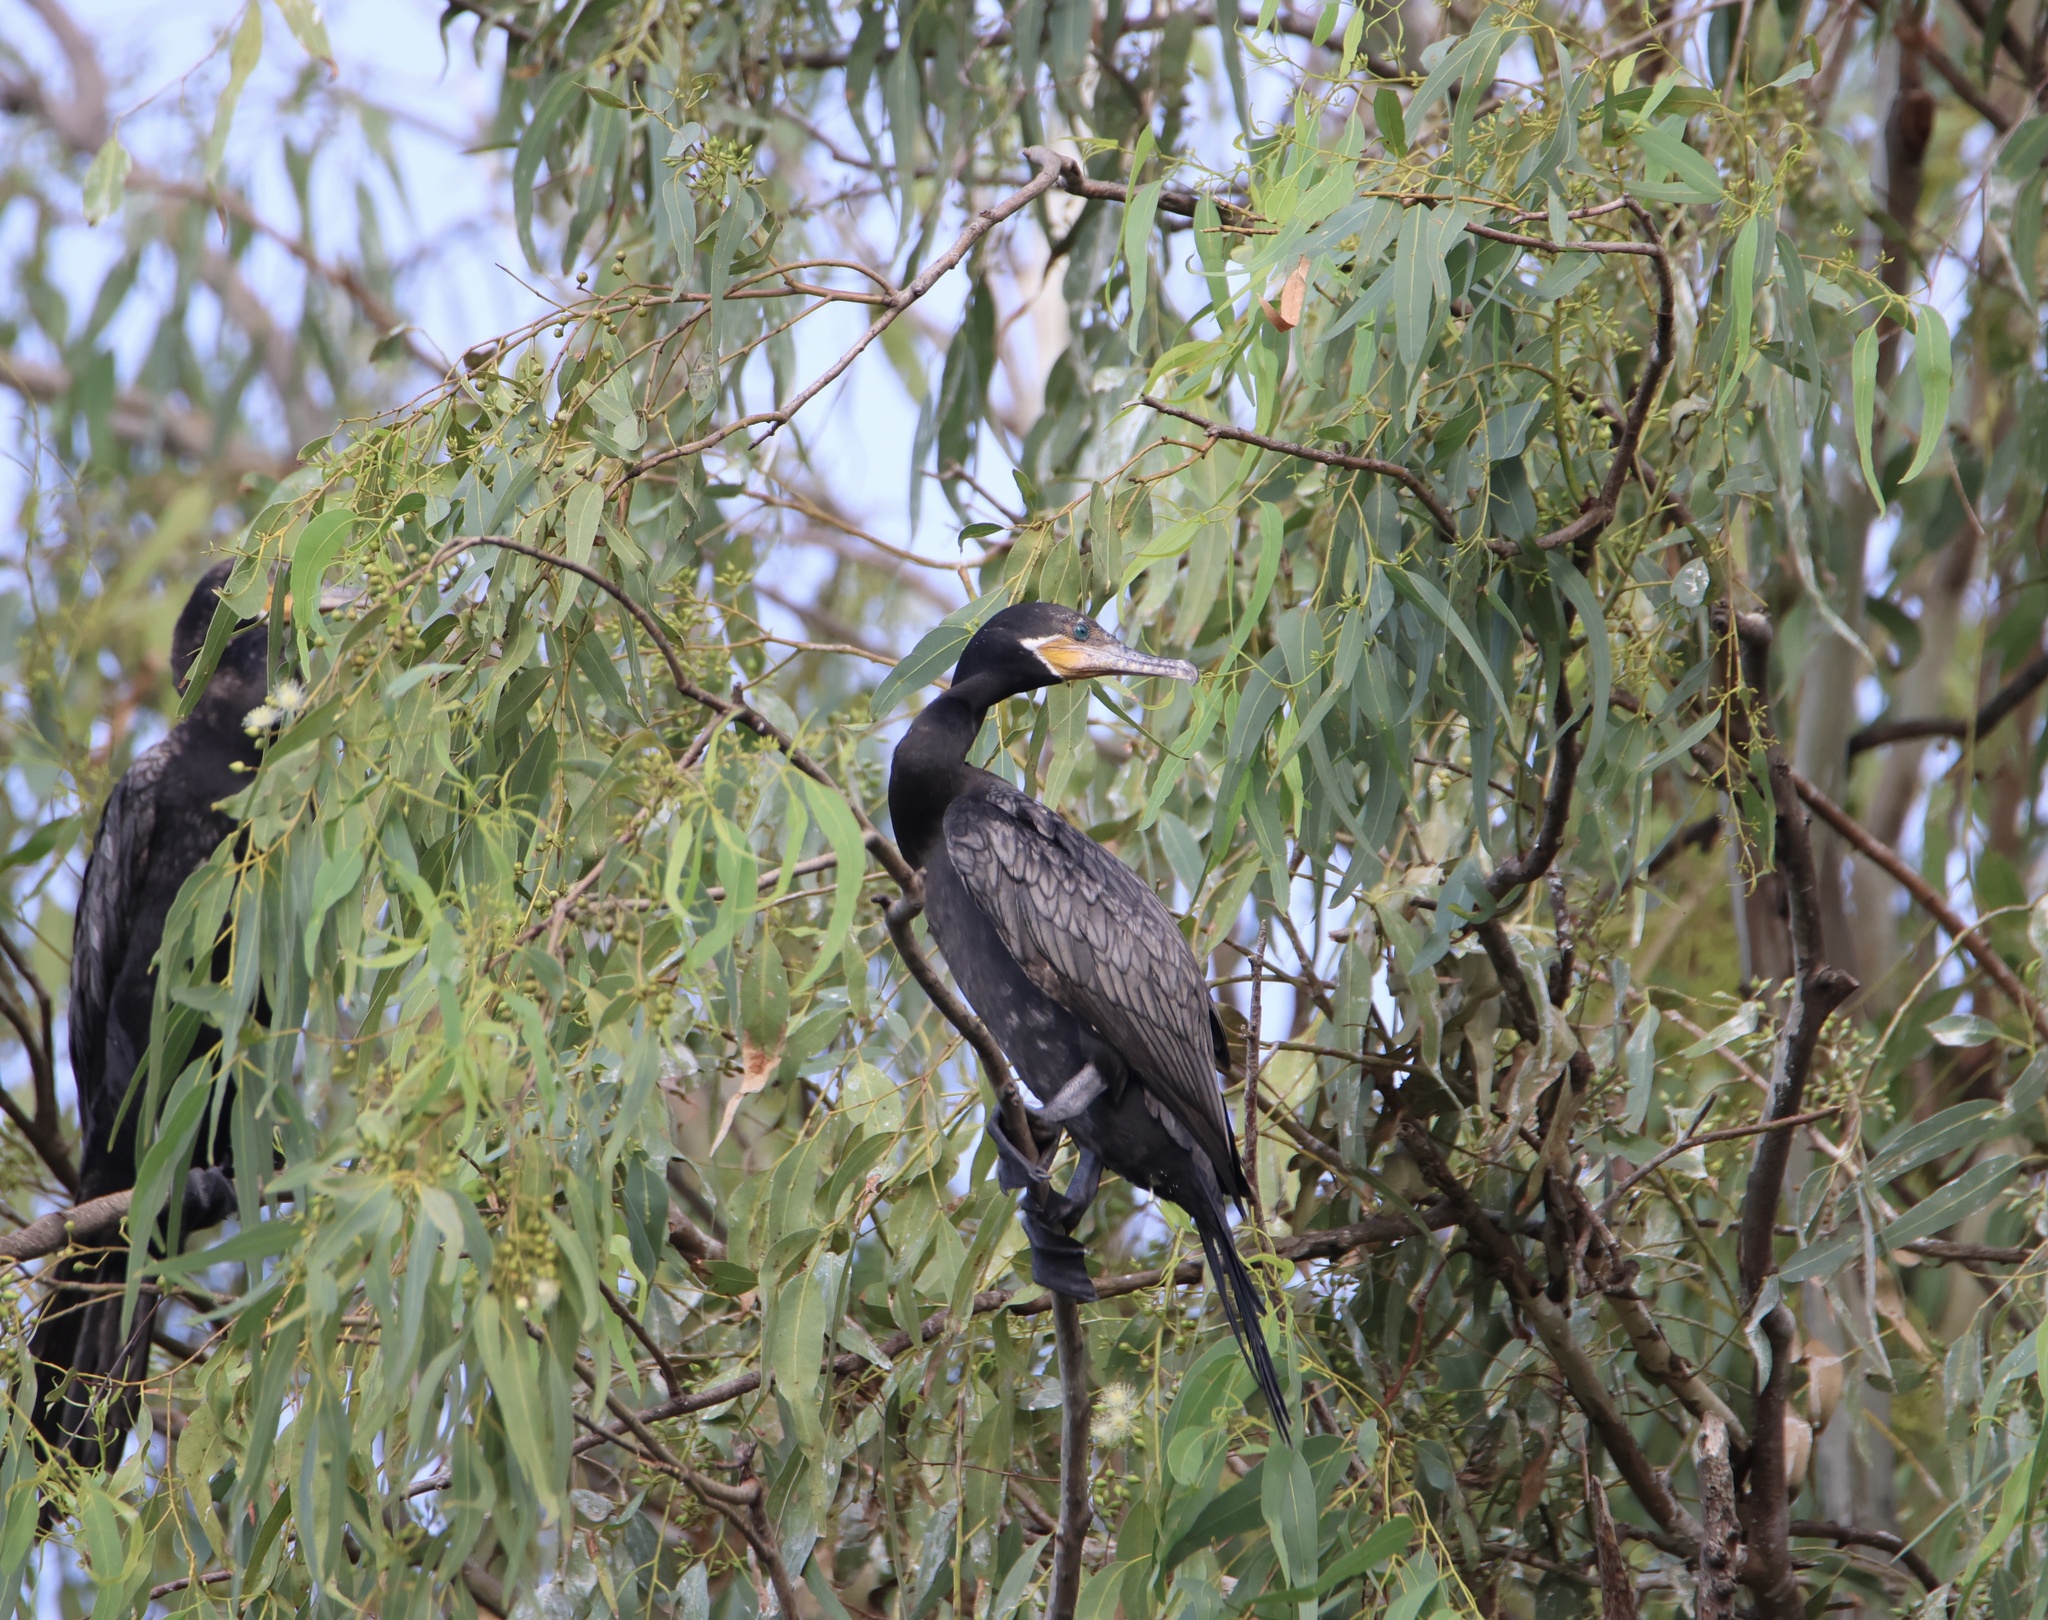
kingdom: Animalia
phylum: Chordata
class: Aves
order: Suliformes
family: Phalacrocoracidae
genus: Phalacrocorax
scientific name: Phalacrocorax brasilianus
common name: Neotropic cormorant
